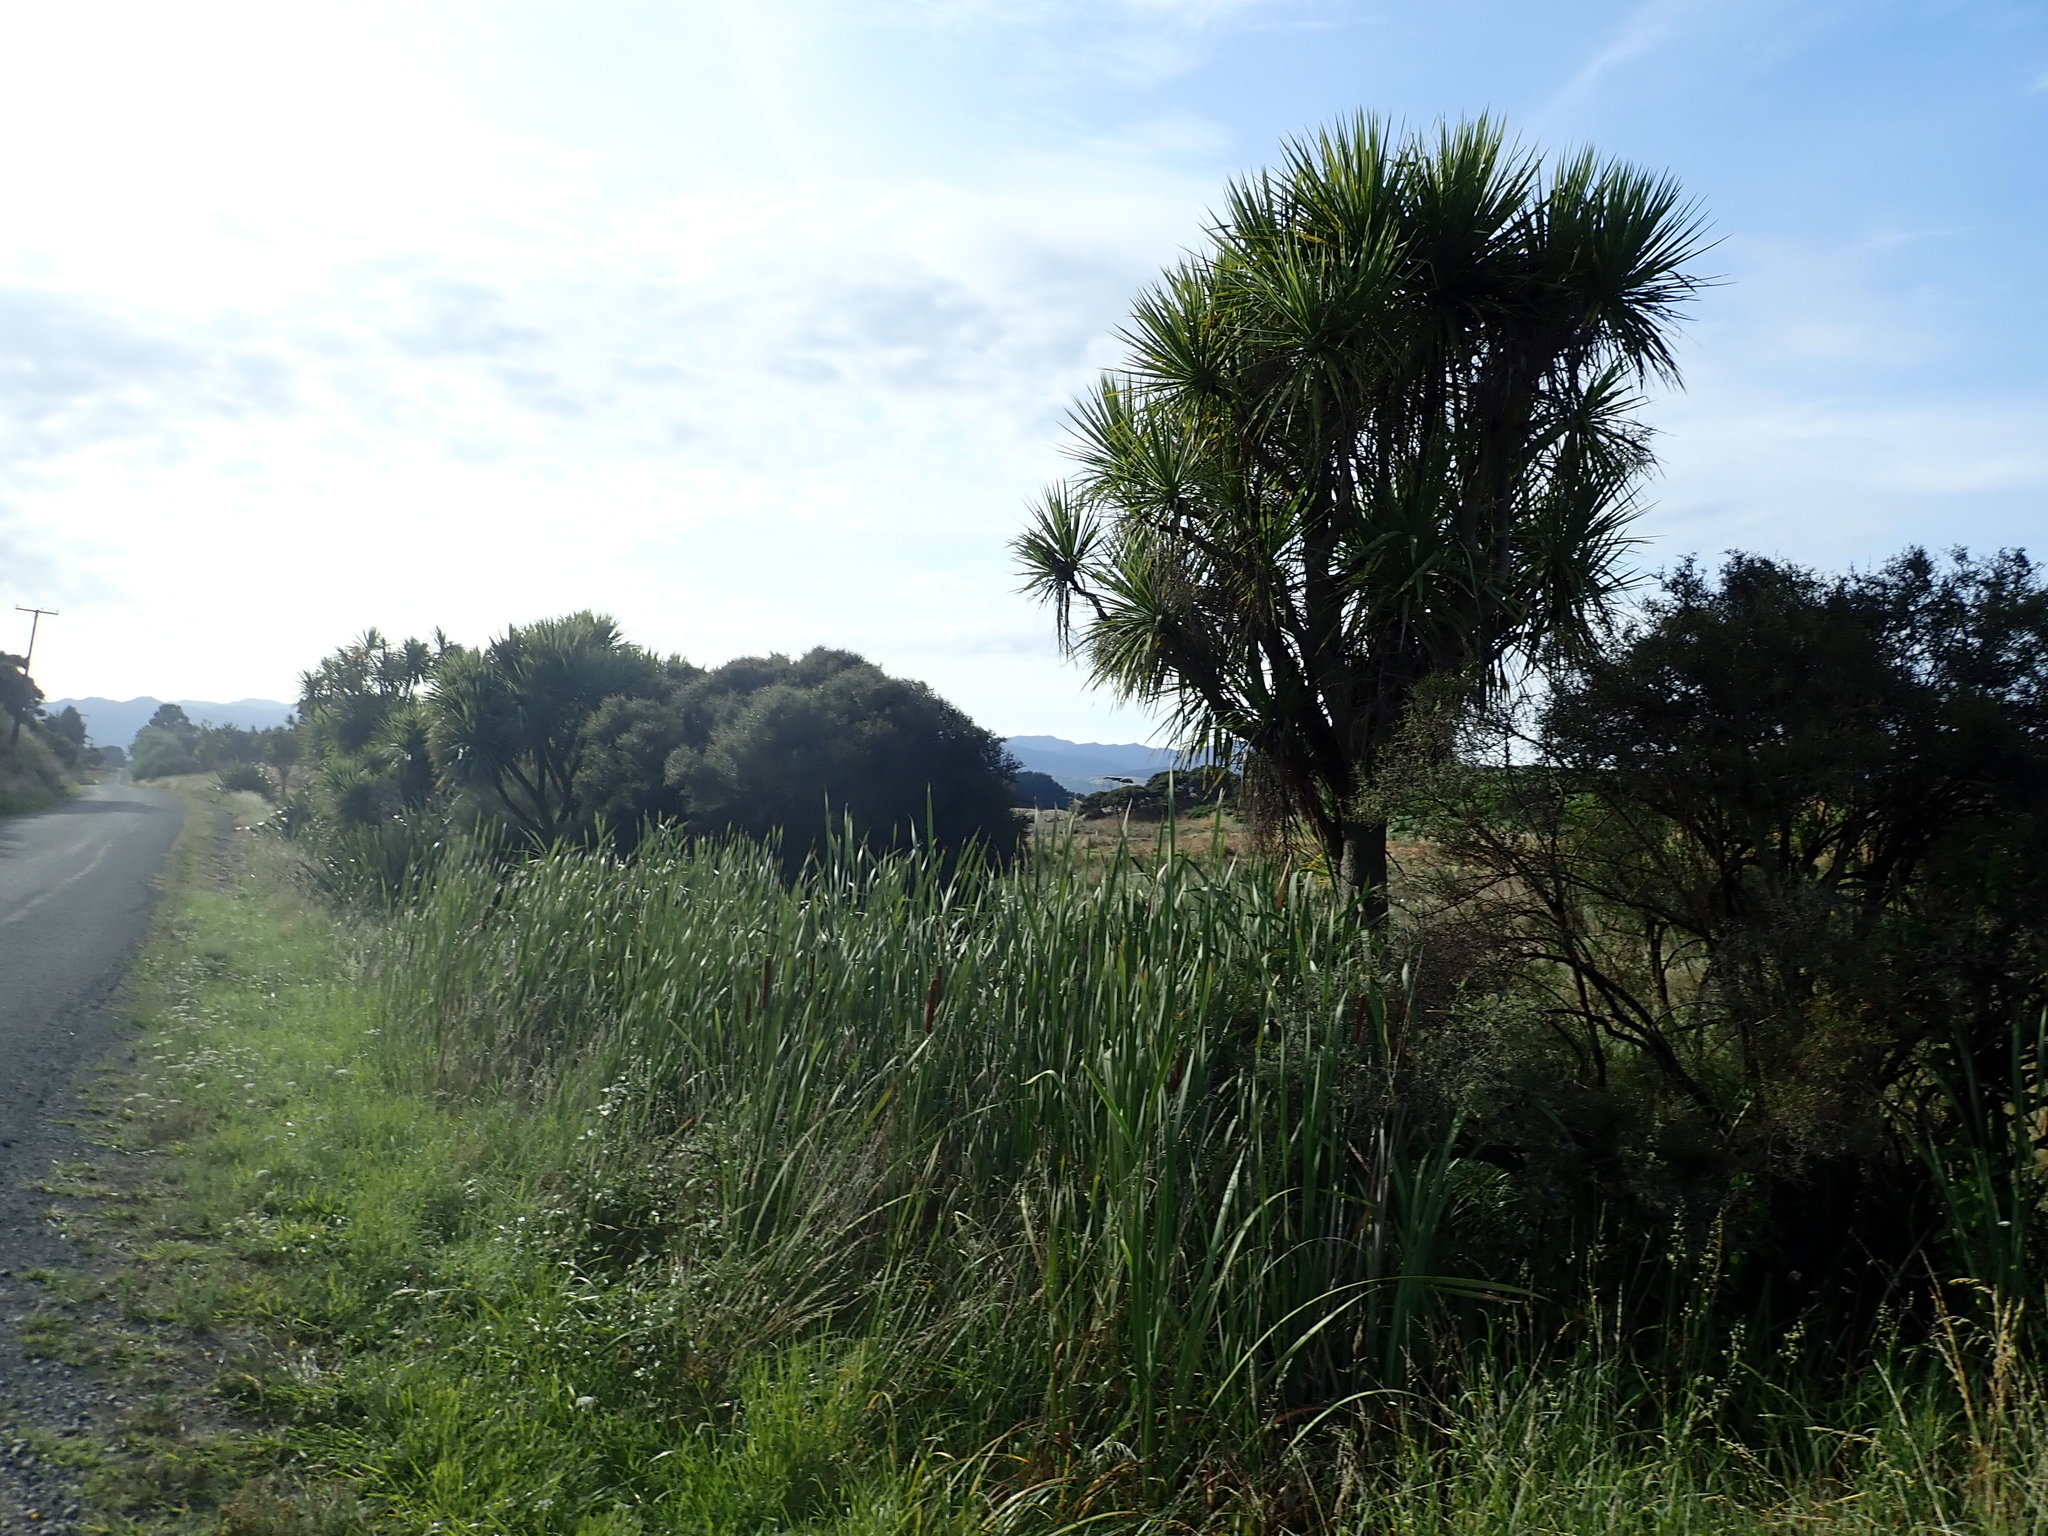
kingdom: Plantae
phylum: Tracheophyta
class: Liliopsida
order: Asparagales
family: Asparagaceae
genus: Cordyline
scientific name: Cordyline australis
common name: Cabbage-palm
